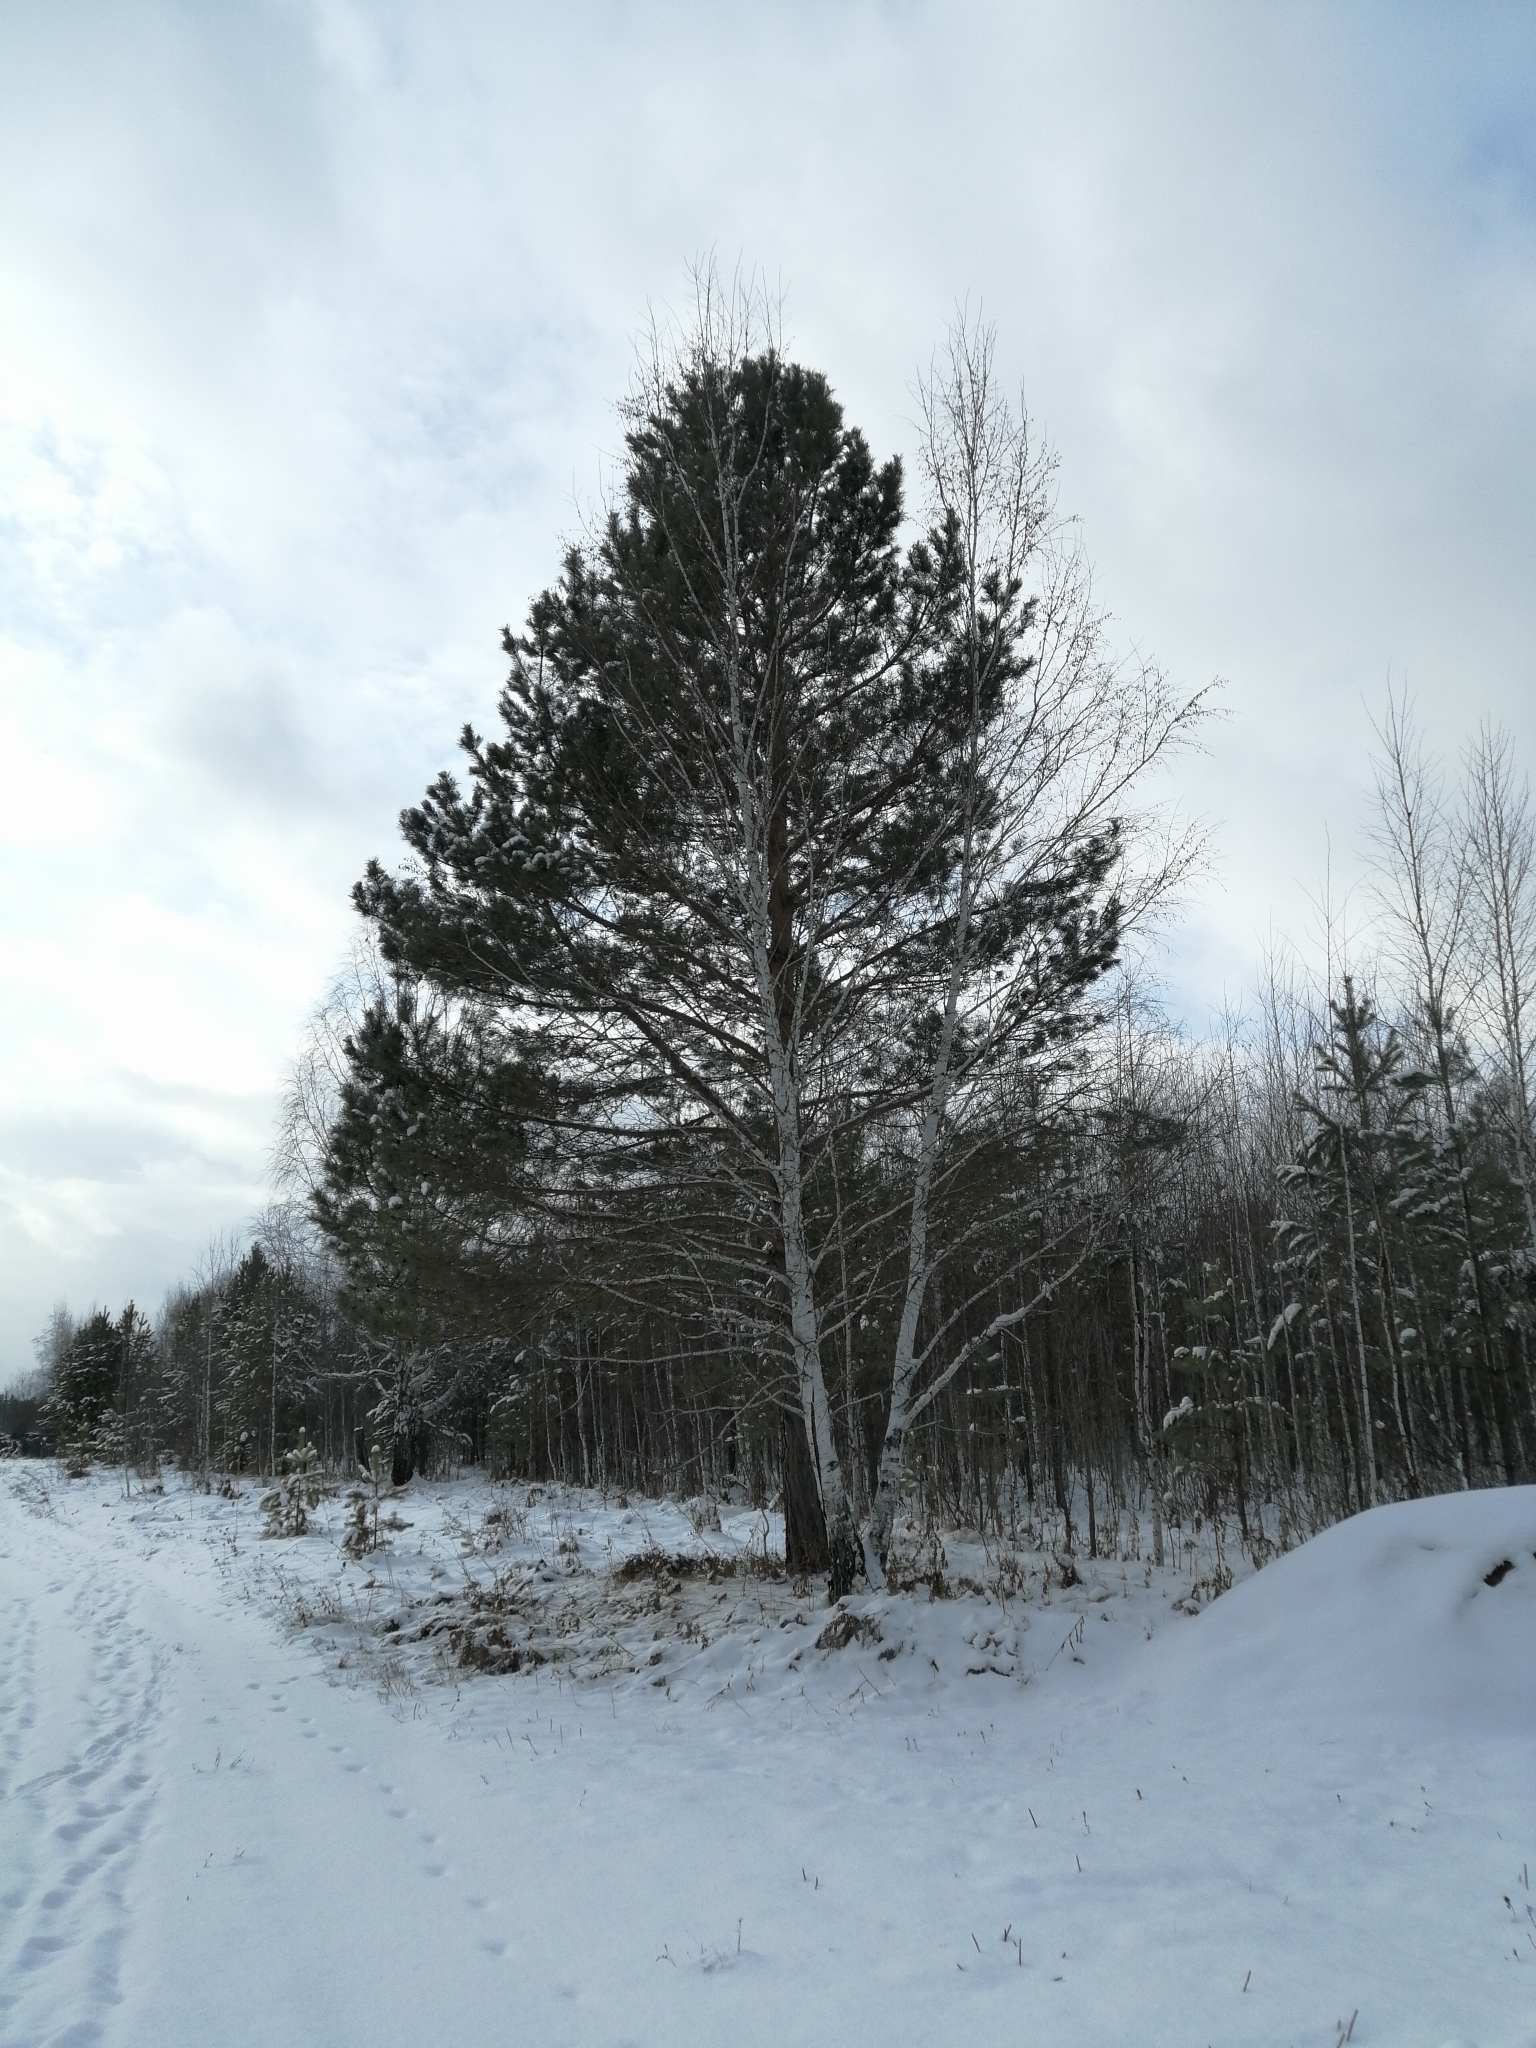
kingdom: Plantae
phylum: Tracheophyta
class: Pinopsida
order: Pinales
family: Pinaceae
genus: Pinus
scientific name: Pinus sylvestris
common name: Scots pine
